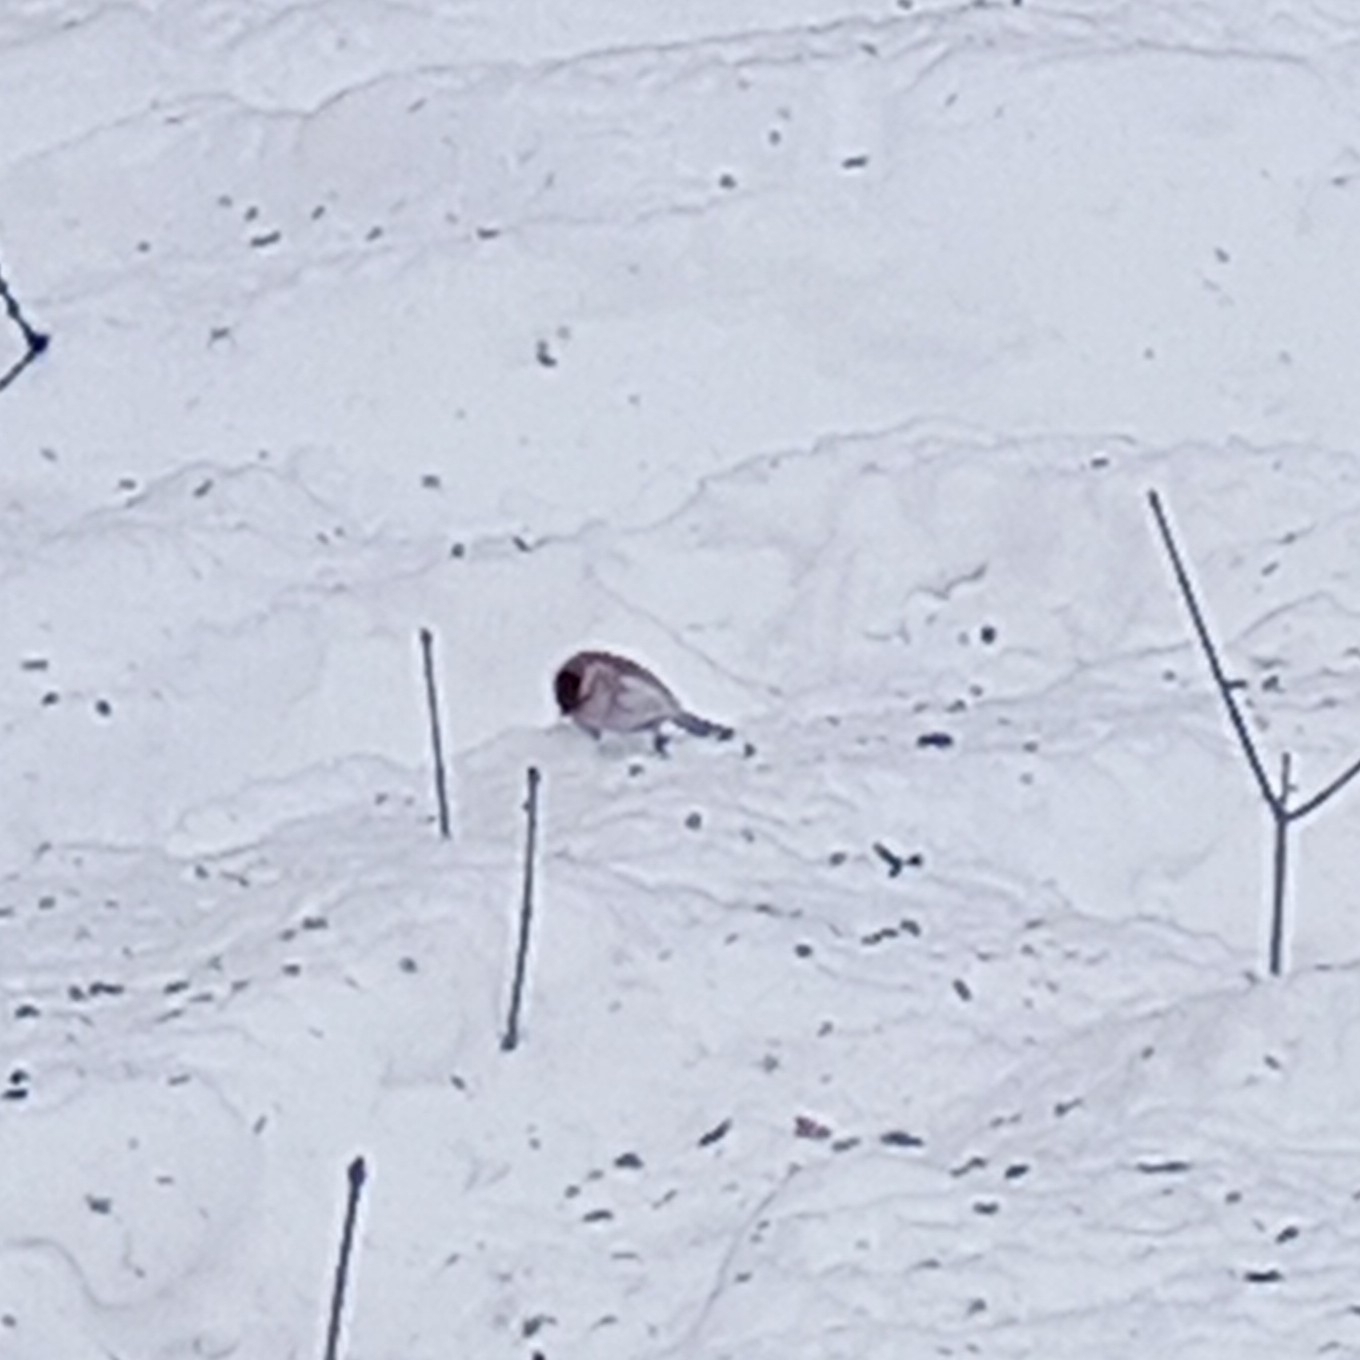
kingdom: Animalia
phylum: Chordata
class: Aves
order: Passeriformes
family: Fringillidae
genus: Acanthis
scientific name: Acanthis flammea
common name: Common redpoll
